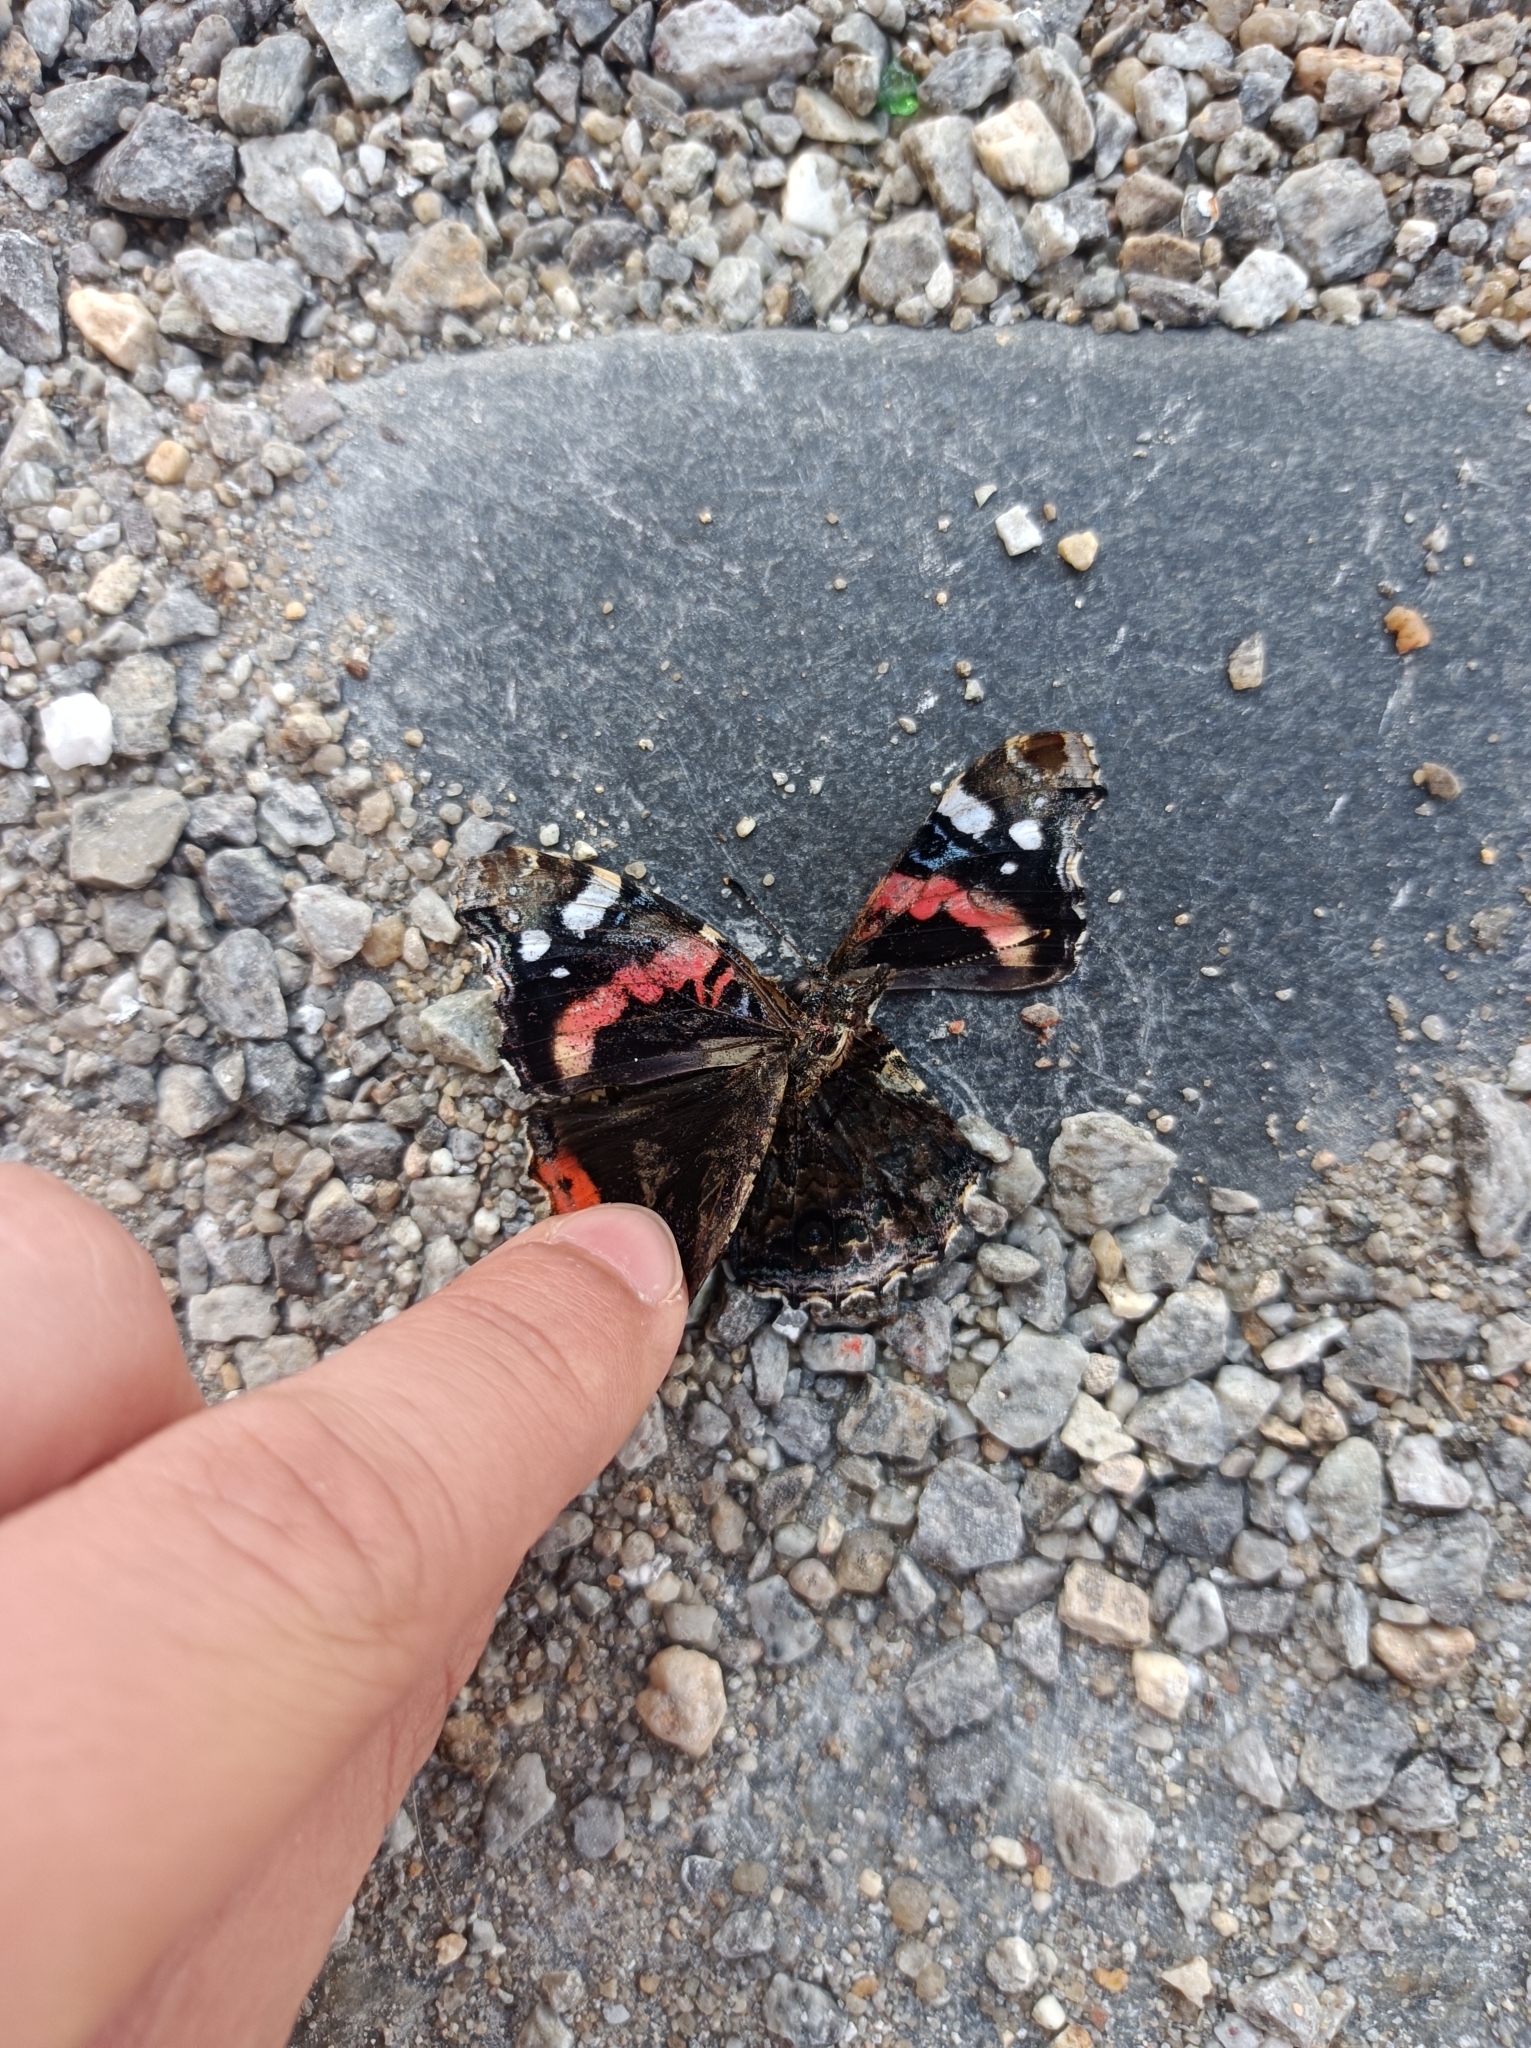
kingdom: Animalia
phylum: Arthropoda
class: Insecta
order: Lepidoptera
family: Nymphalidae
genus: Vanessa
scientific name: Vanessa atalanta
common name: Red admiral
